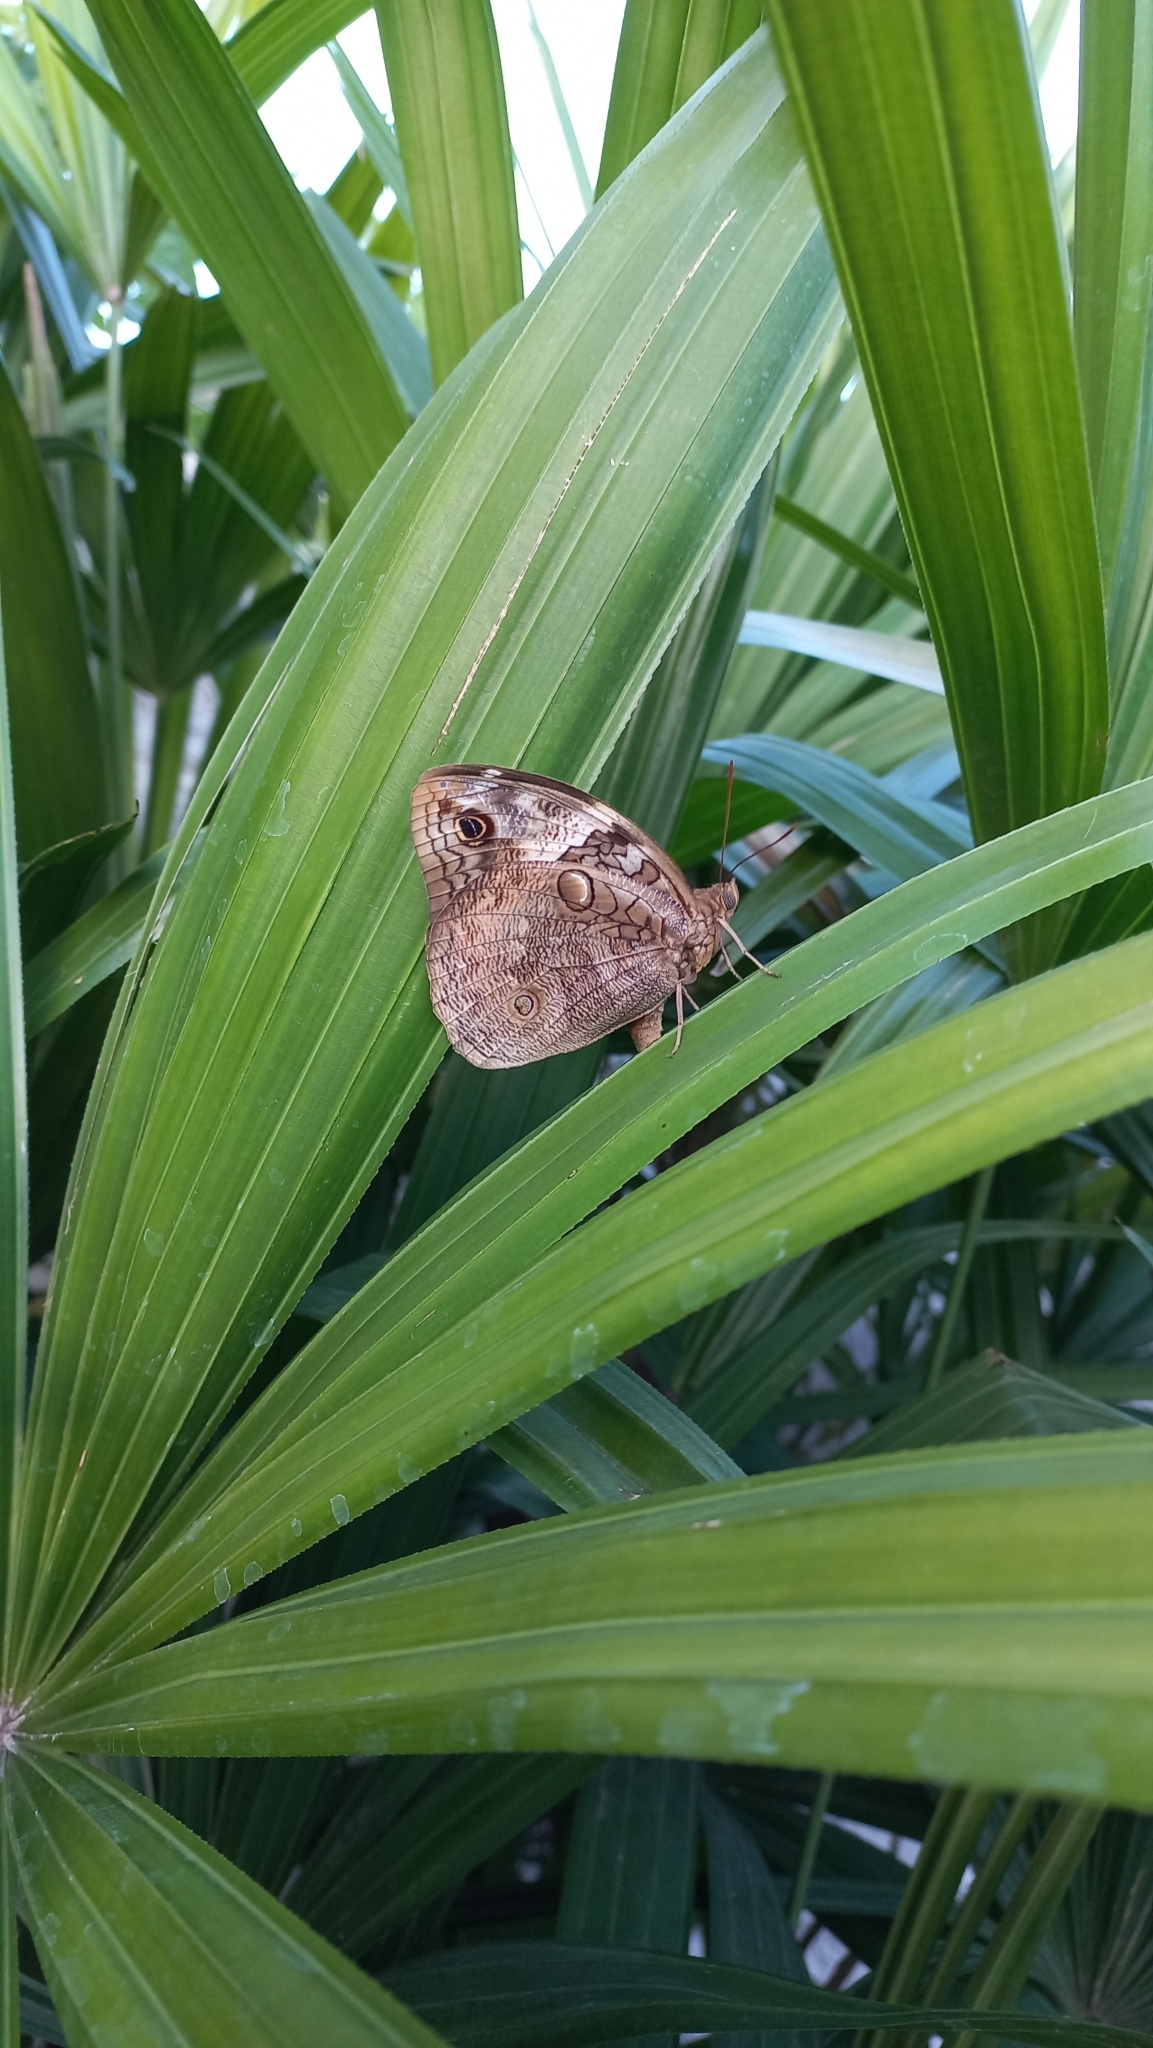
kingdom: Animalia
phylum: Arthropoda
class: Insecta
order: Lepidoptera
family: Nymphalidae
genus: Opsiphanes
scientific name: Opsiphanes invirae
